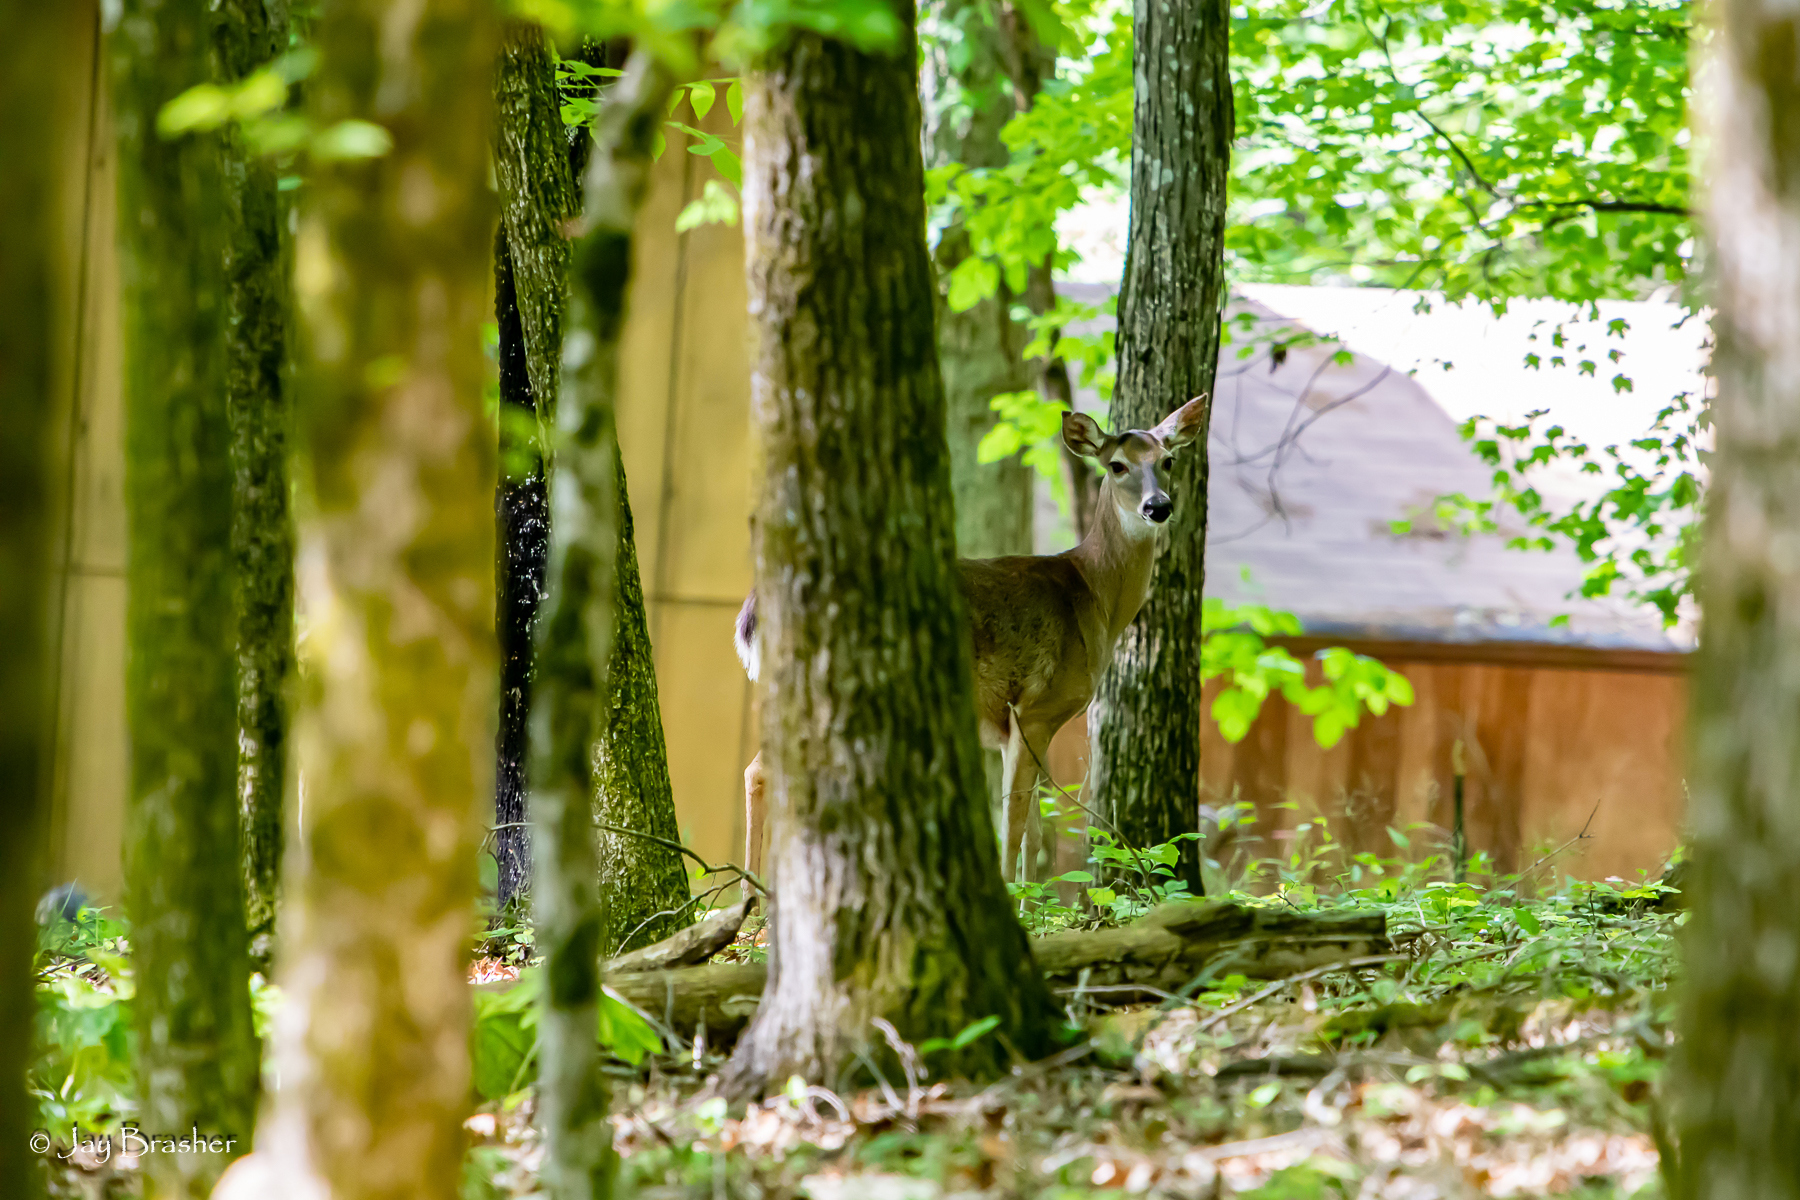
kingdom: Animalia
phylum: Chordata
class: Mammalia
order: Artiodactyla
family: Cervidae
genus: Odocoileus
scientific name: Odocoileus virginianus
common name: White-tailed deer
